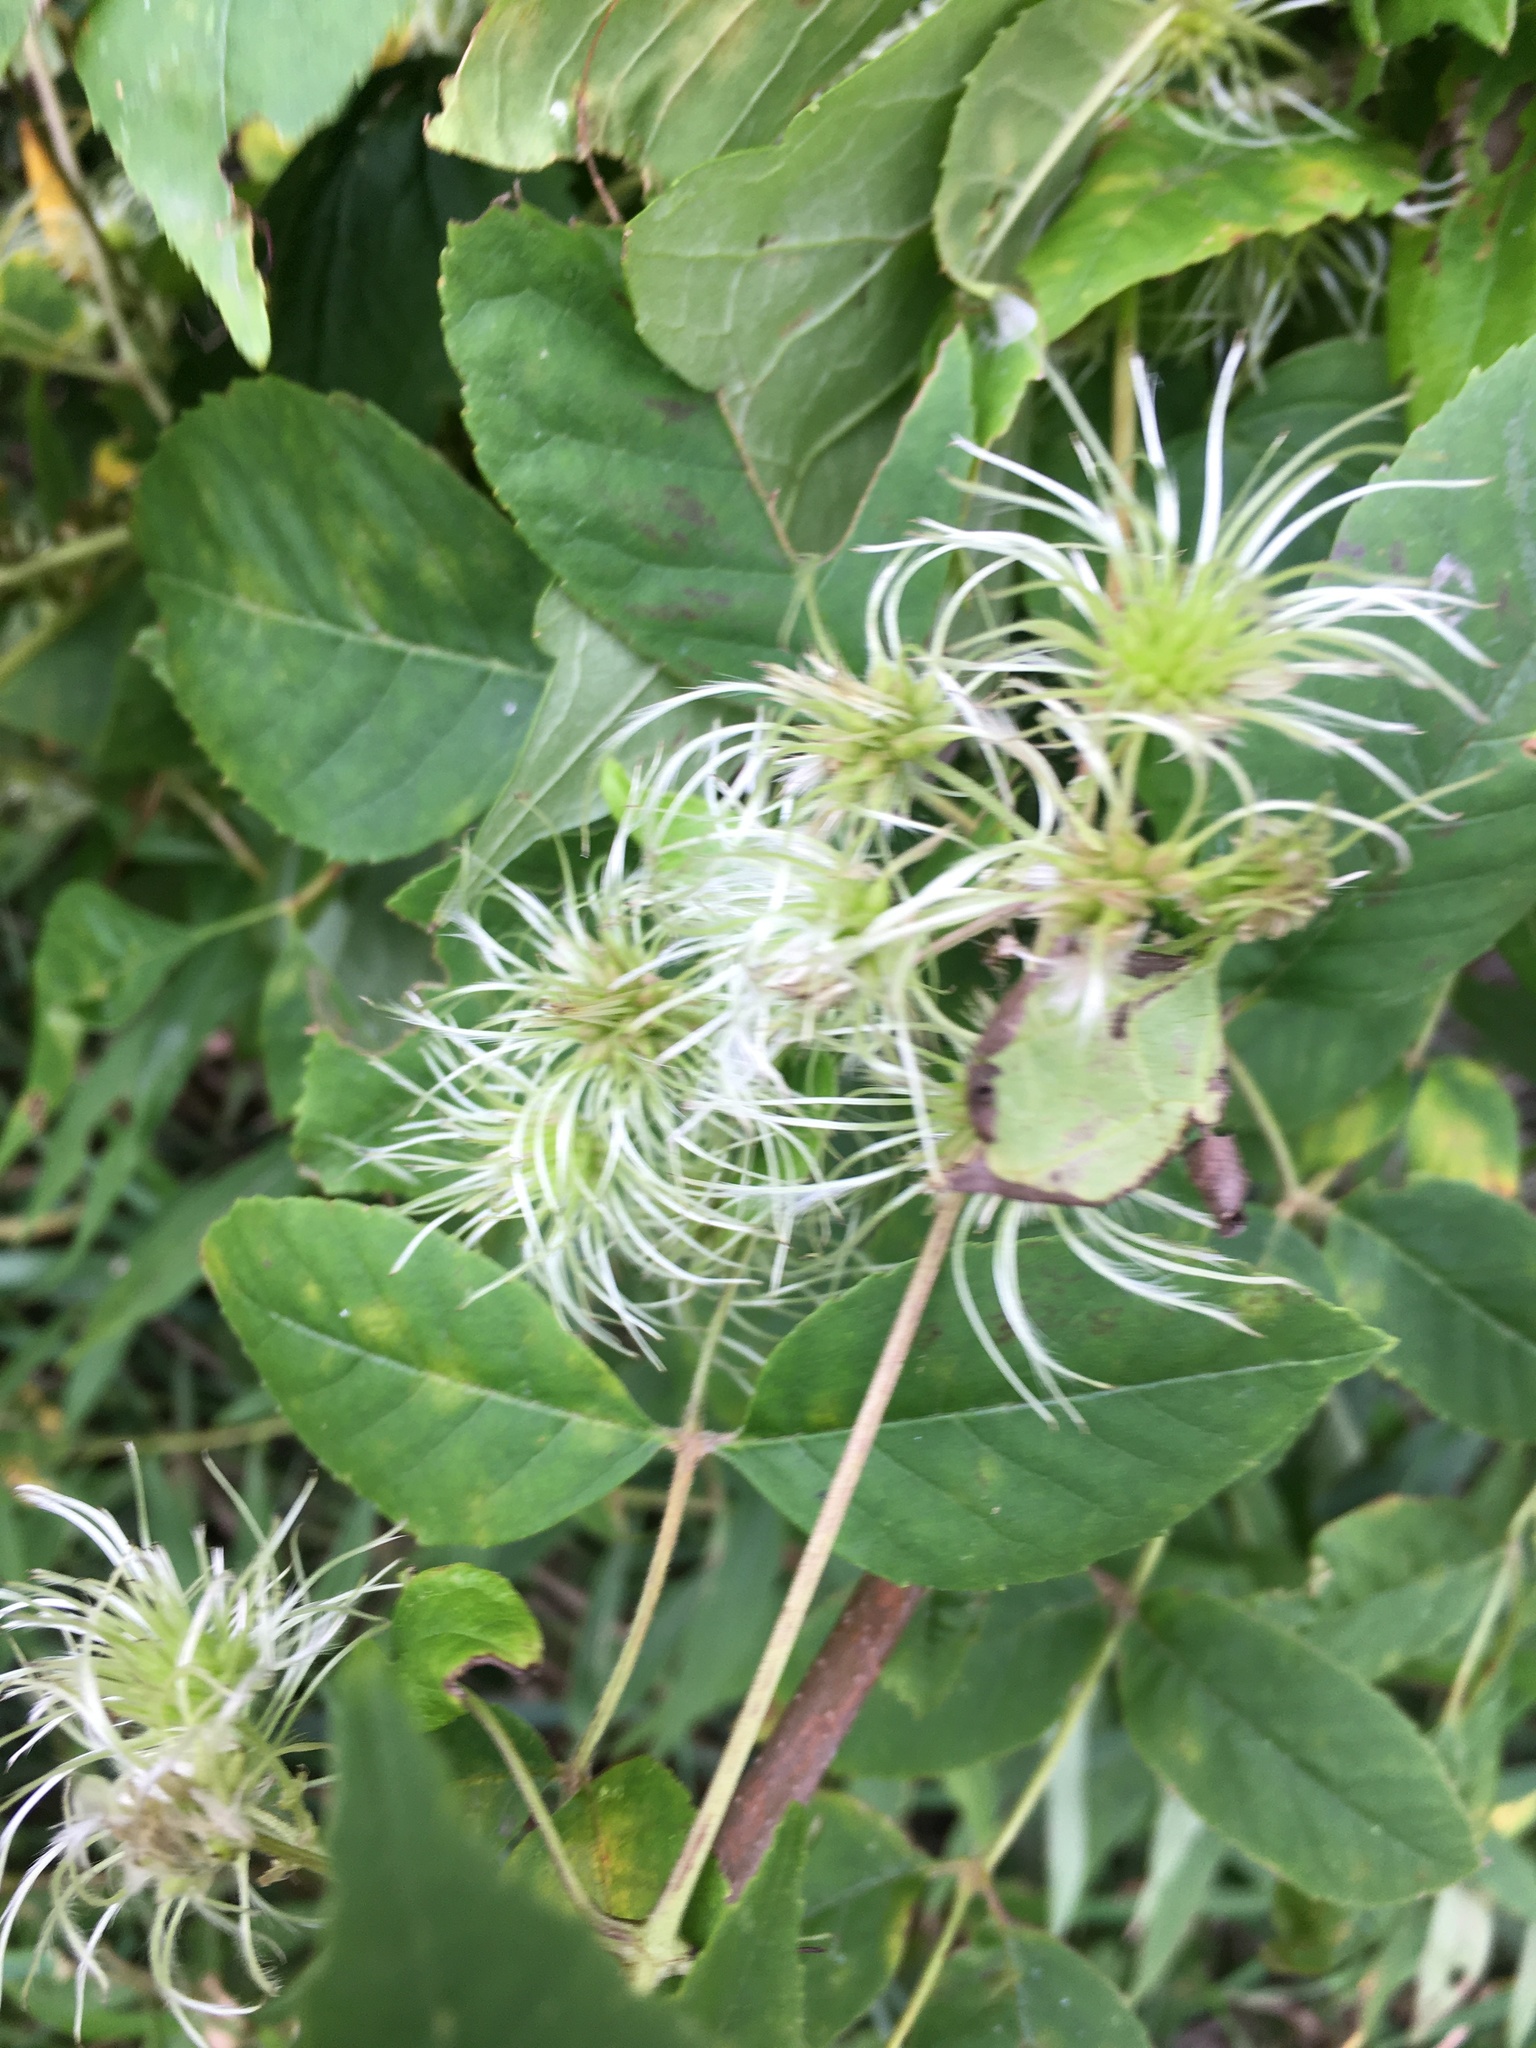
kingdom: Plantae
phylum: Tracheophyta
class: Magnoliopsida
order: Ranunculales
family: Ranunculaceae
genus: Clematis
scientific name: Clematis virginiana
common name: Virgin's-bower
